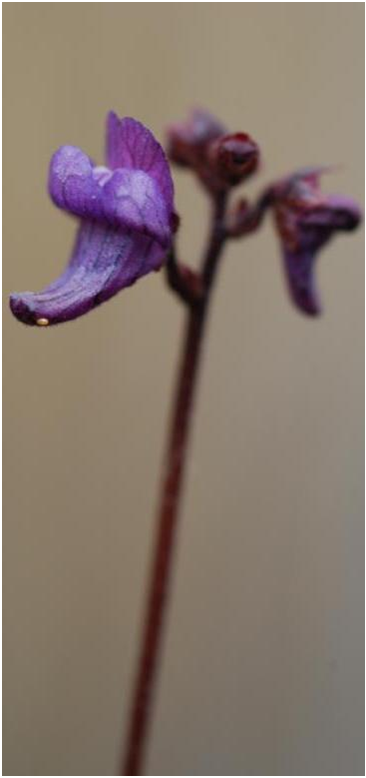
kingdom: Plantae
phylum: Tracheophyta
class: Magnoliopsida
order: Lamiales
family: Lentibulariaceae
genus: Genlisea
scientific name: Genlisea margaretae
